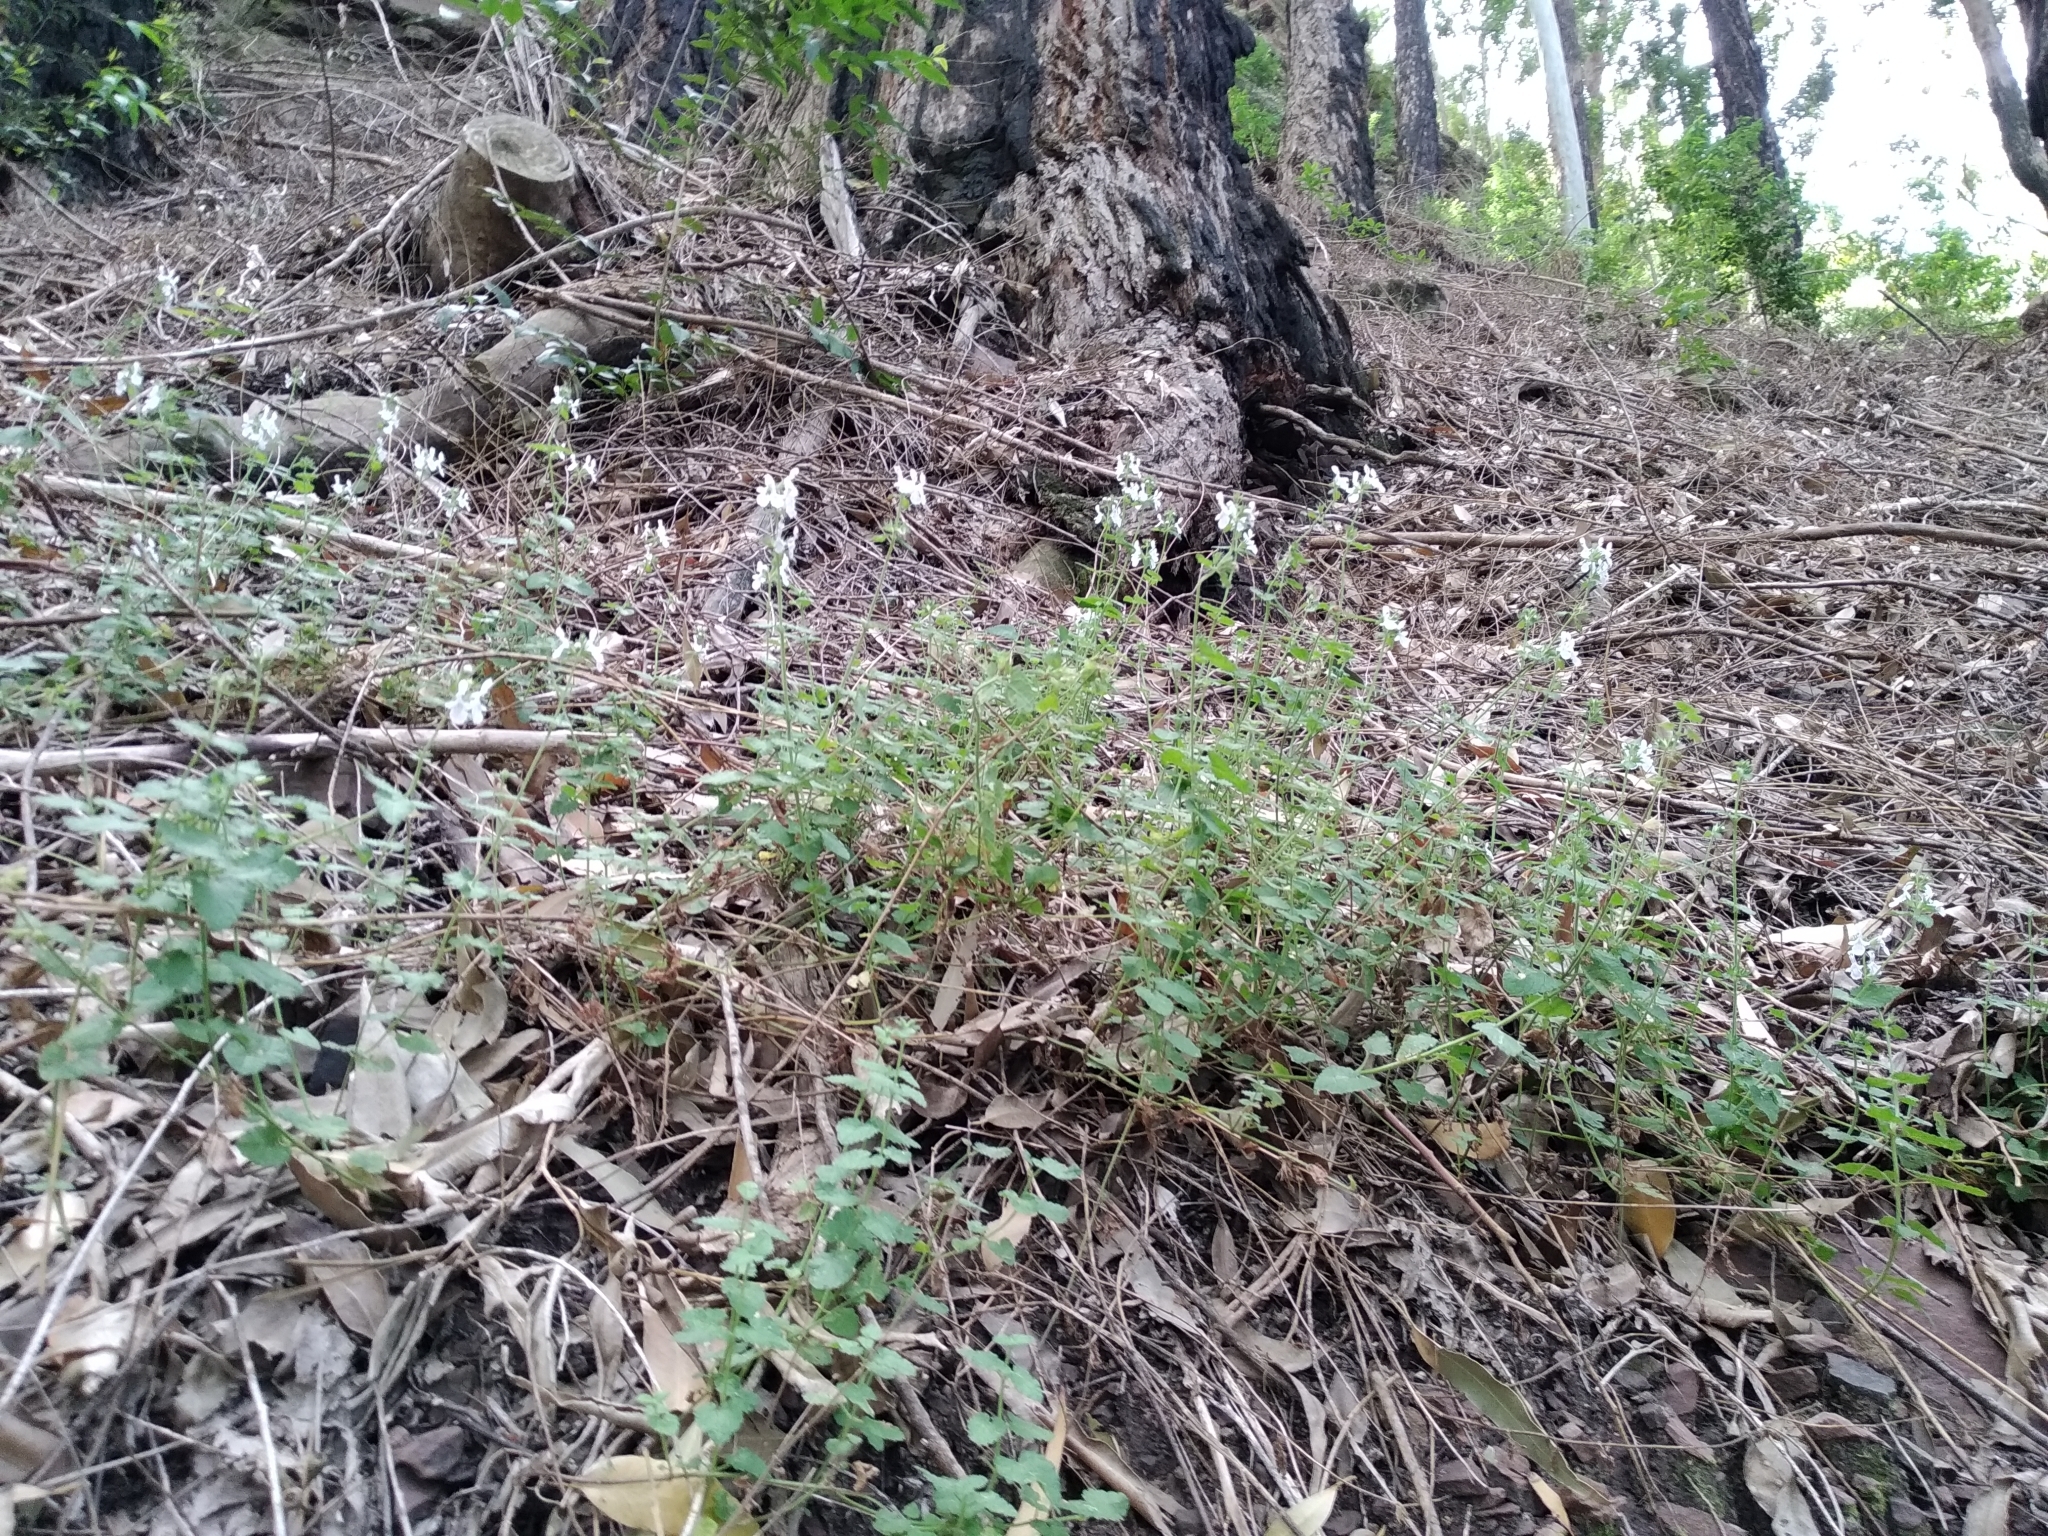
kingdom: Plantae
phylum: Tracheophyta
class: Magnoliopsida
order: Lamiales
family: Lamiaceae
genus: Stachys
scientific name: Stachys aethiopica
